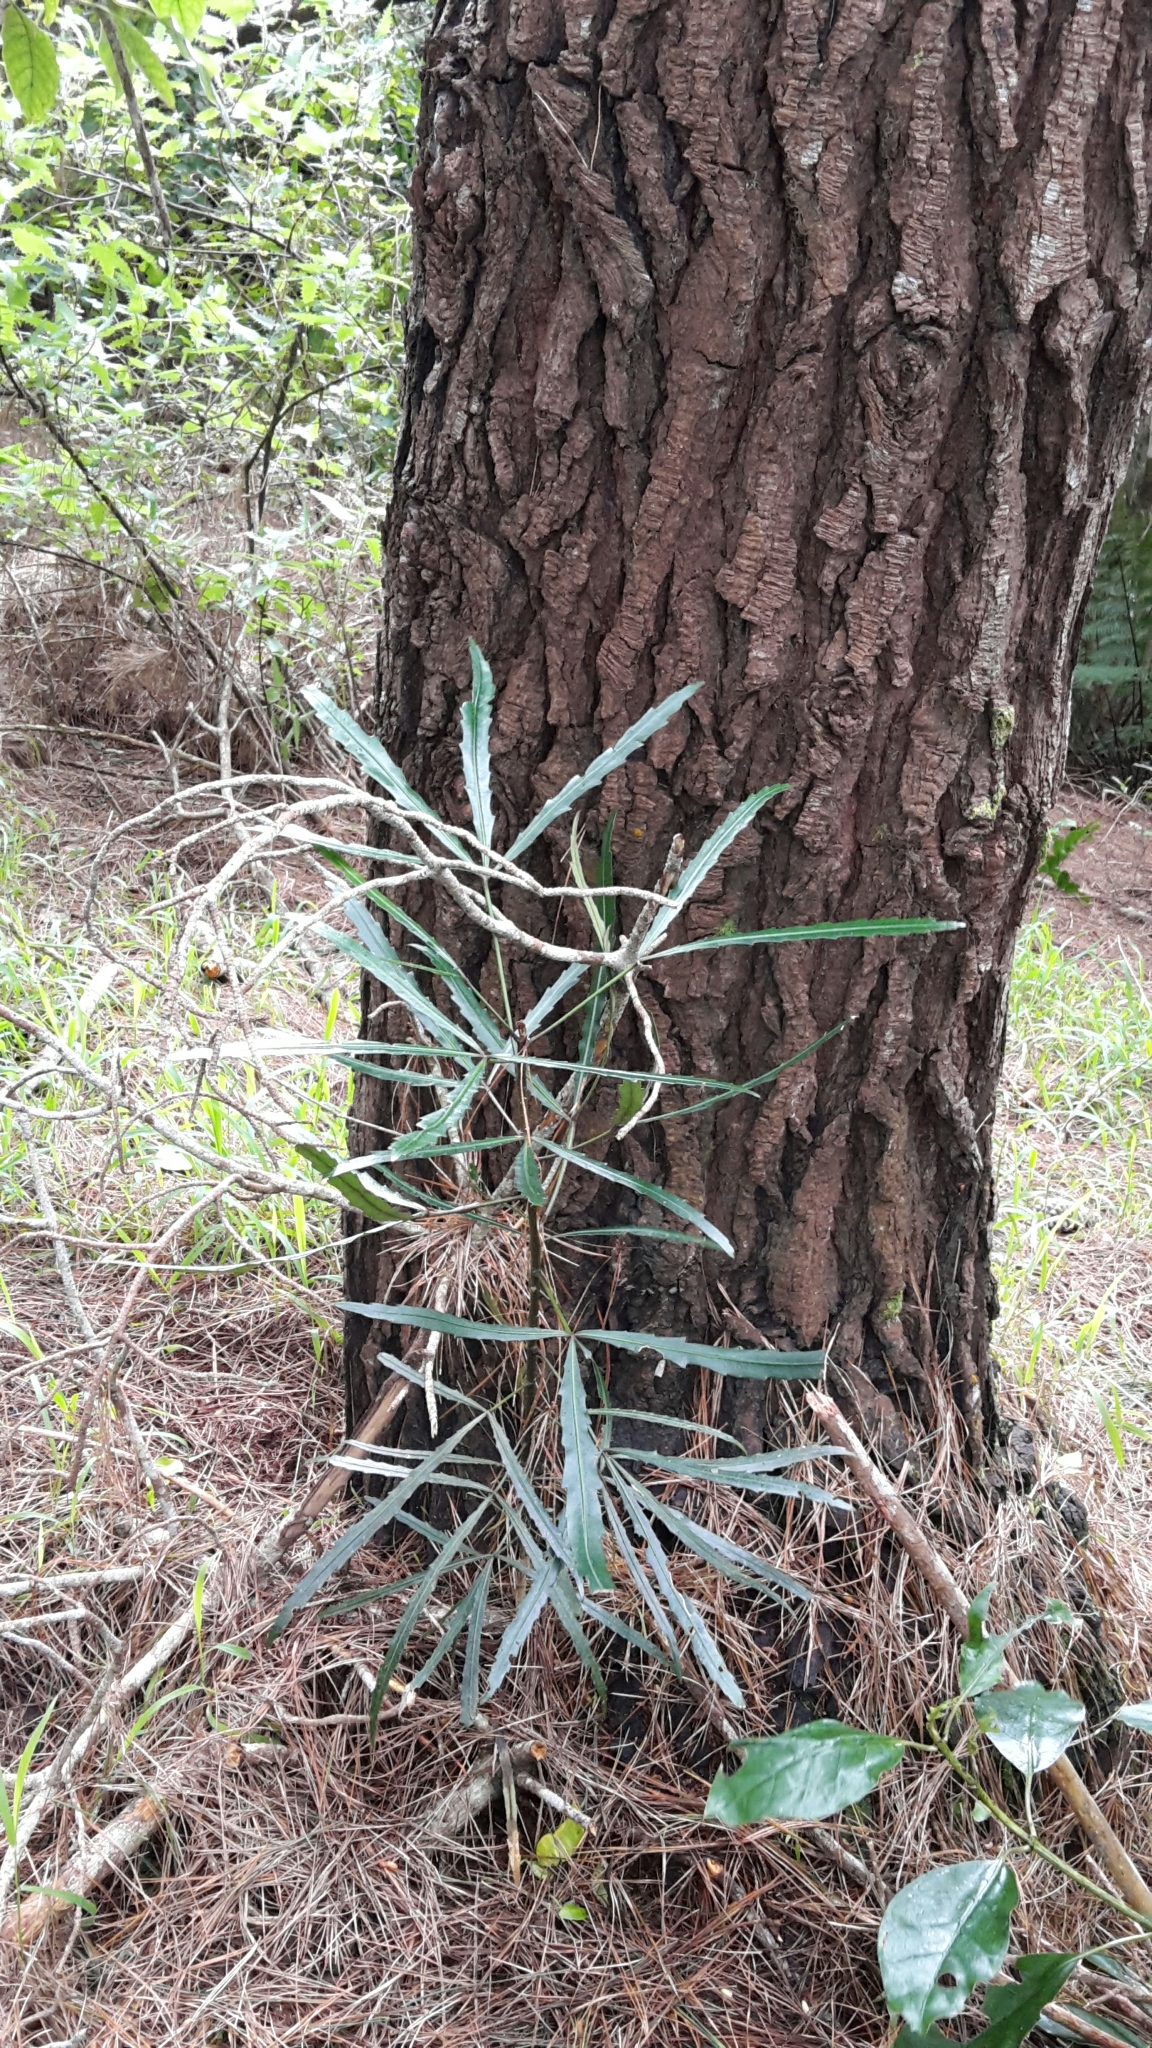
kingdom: Plantae
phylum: Tracheophyta
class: Magnoliopsida
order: Apiales
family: Araliaceae
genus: Pseudopanax
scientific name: Pseudopanax
